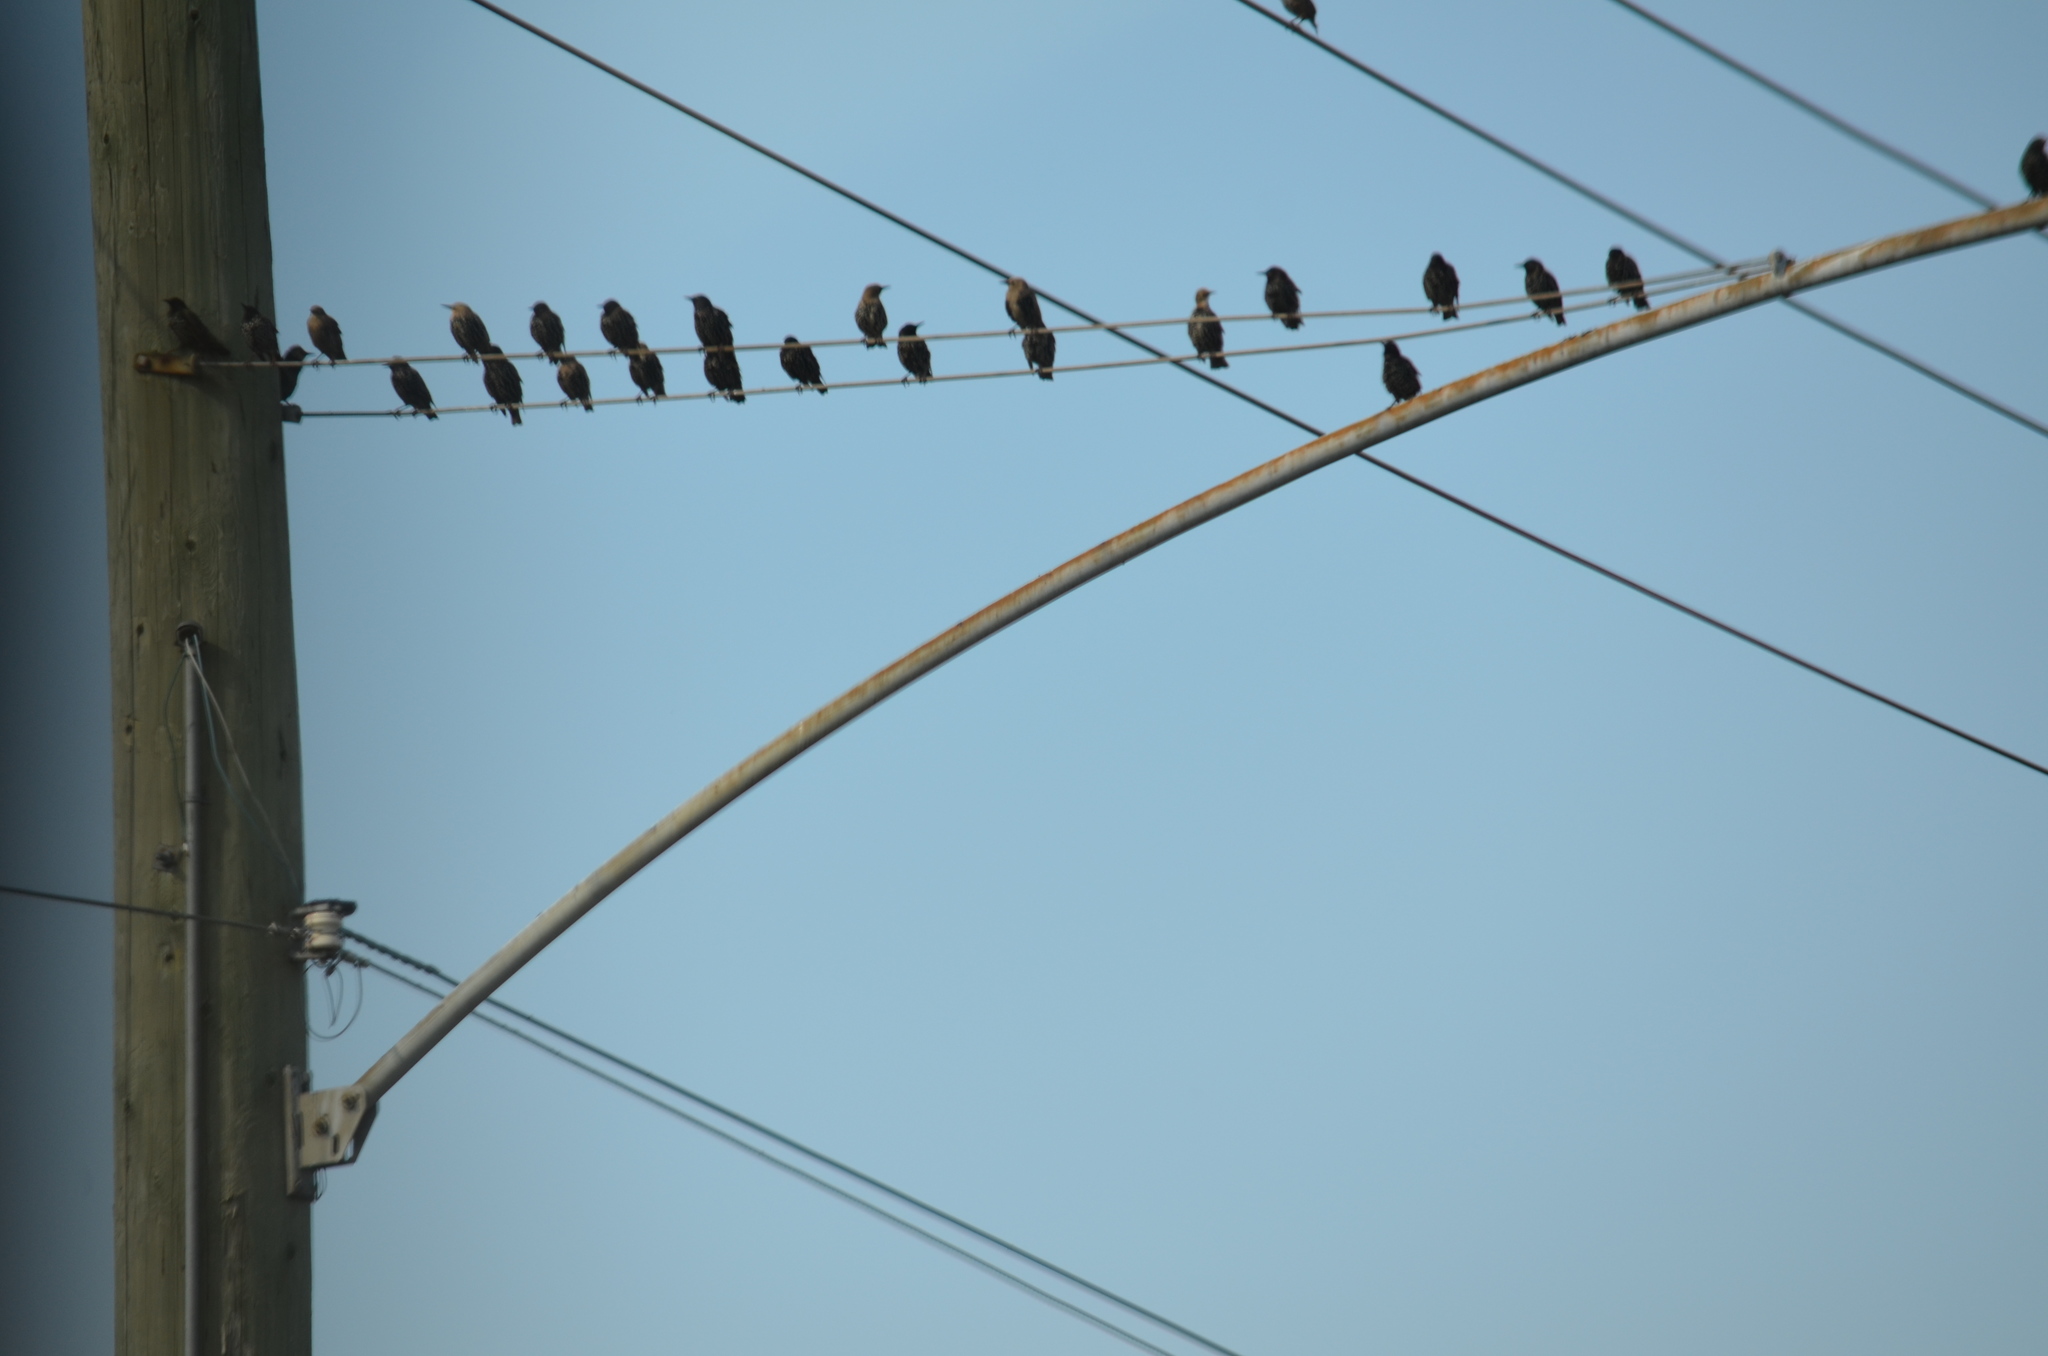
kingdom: Animalia
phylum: Chordata
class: Aves
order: Passeriformes
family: Sturnidae
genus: Sturnus
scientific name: Sturnus vulgaris
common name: Common starling
